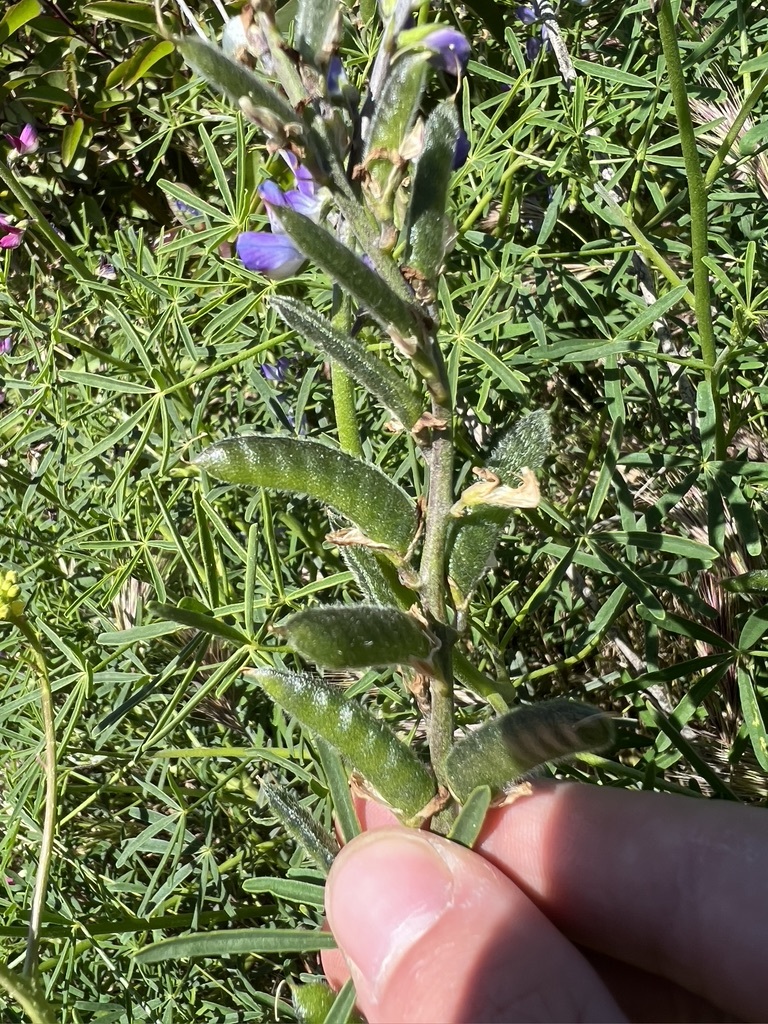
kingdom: Plantae
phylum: Tracheophyta
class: Magnoliopsida
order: Fabales
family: Fabaceae
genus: Lupinus
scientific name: Lupinus truncatus
